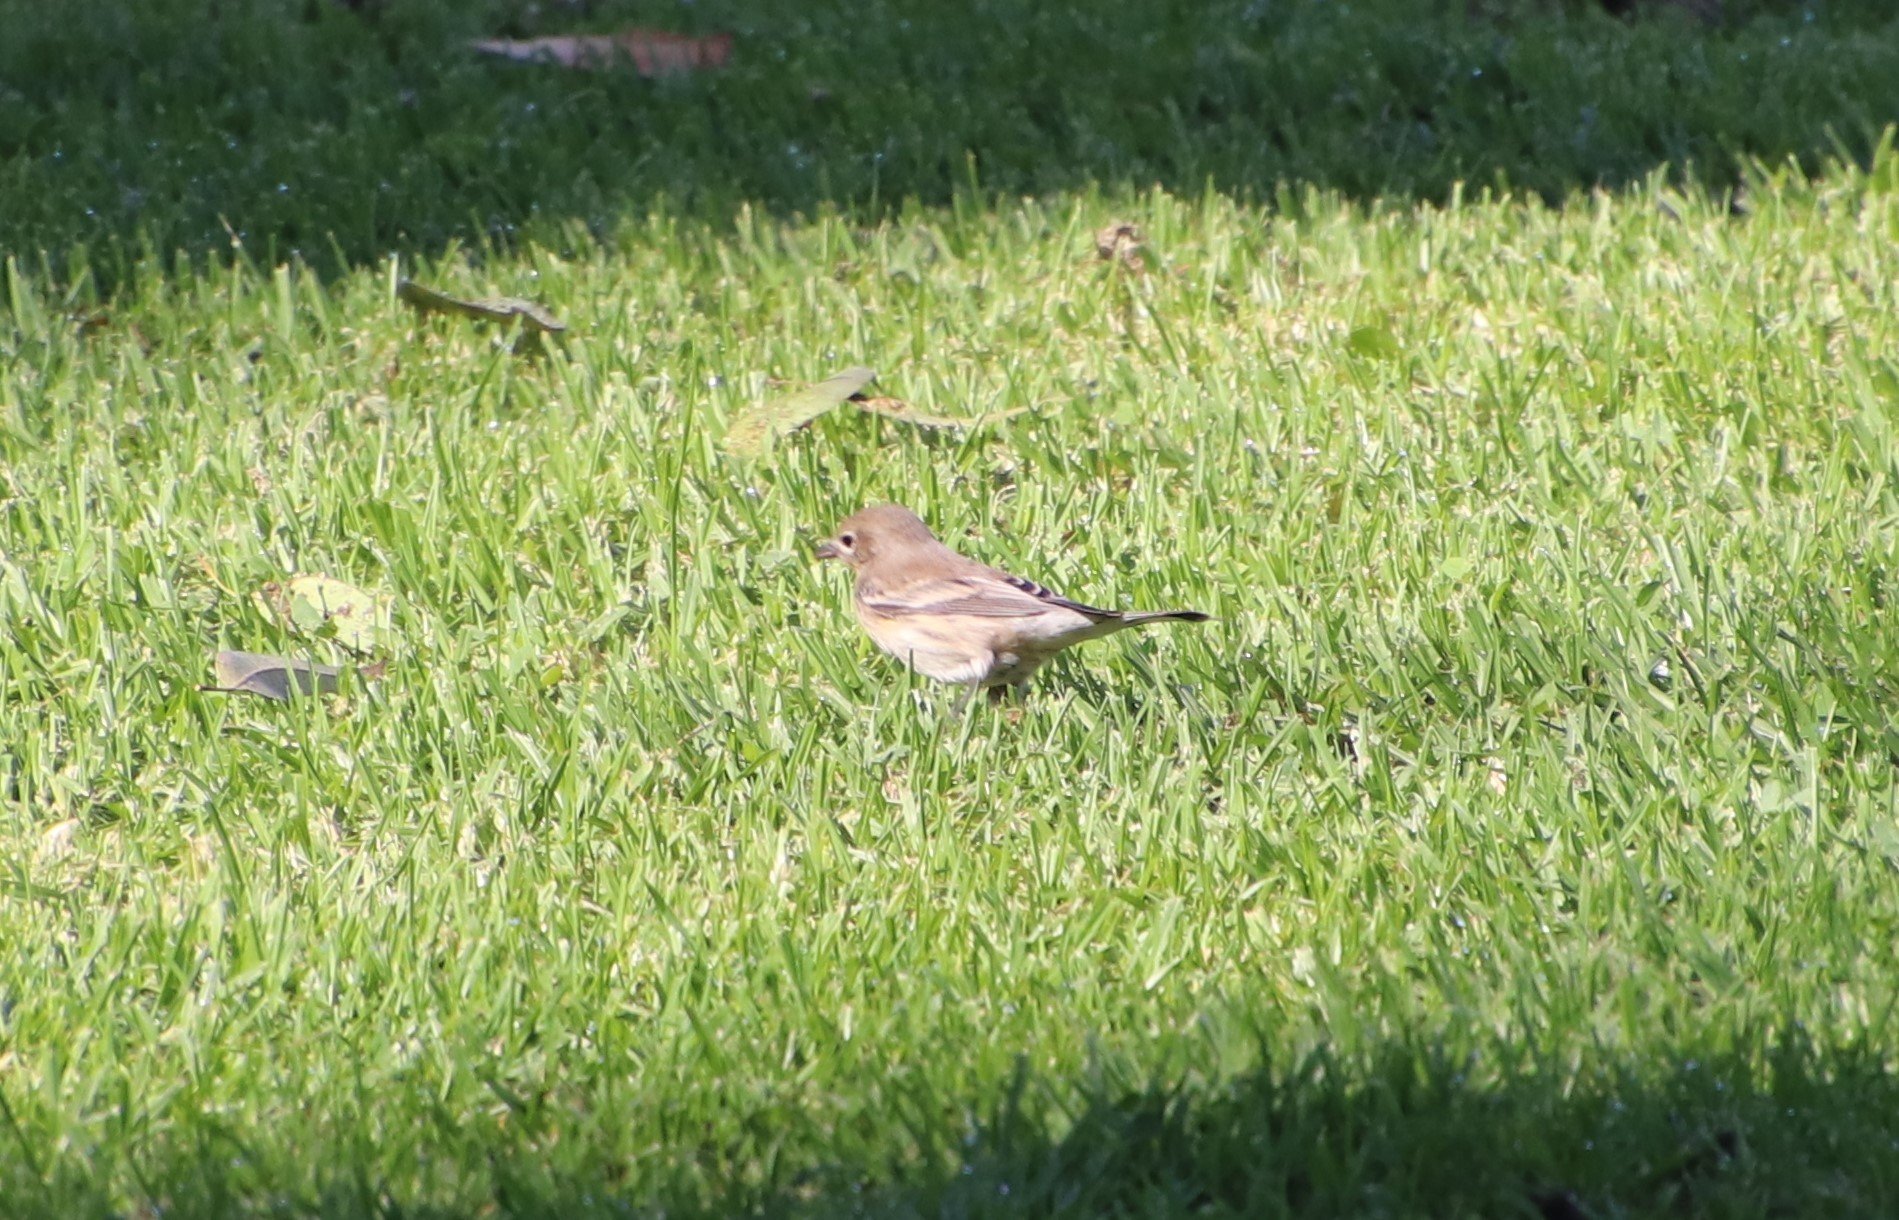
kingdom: Animalia
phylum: Chordata
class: Aves
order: Passeriformes
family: Parulidae
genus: Setophaga
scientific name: Setophaga coronata
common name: Myrtle warbler
